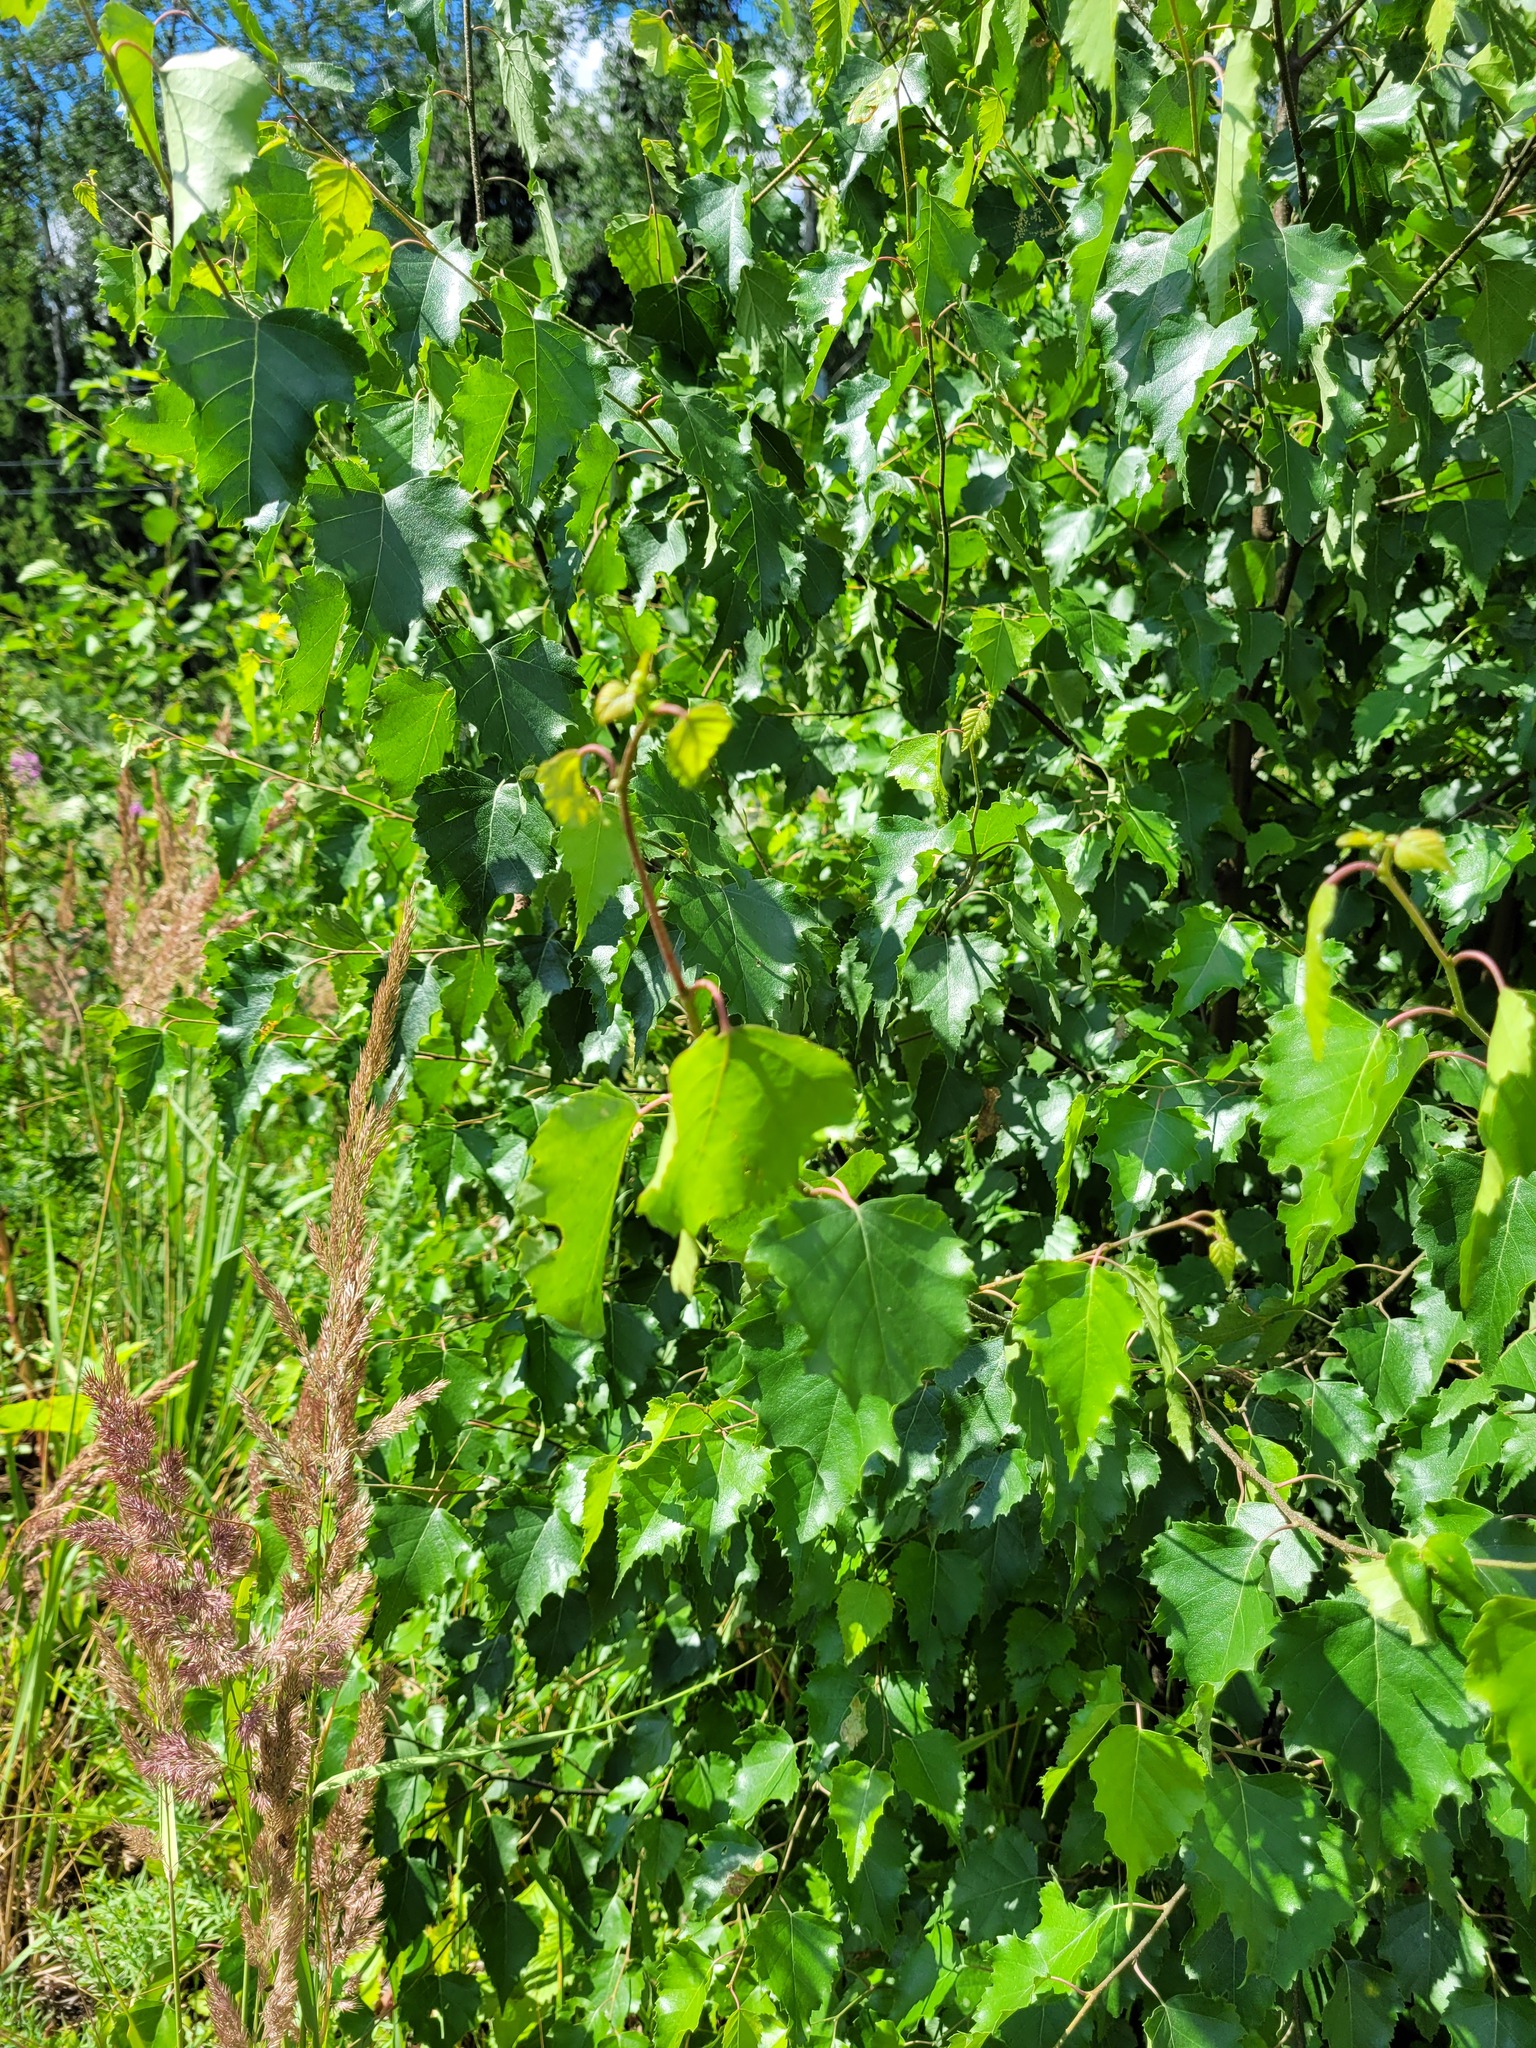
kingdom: Plantae
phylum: Tracheophyta
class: Magnoliopsida
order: Fagales
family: Betulaceae
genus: Betula
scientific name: Betula pendula
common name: Silver birch
